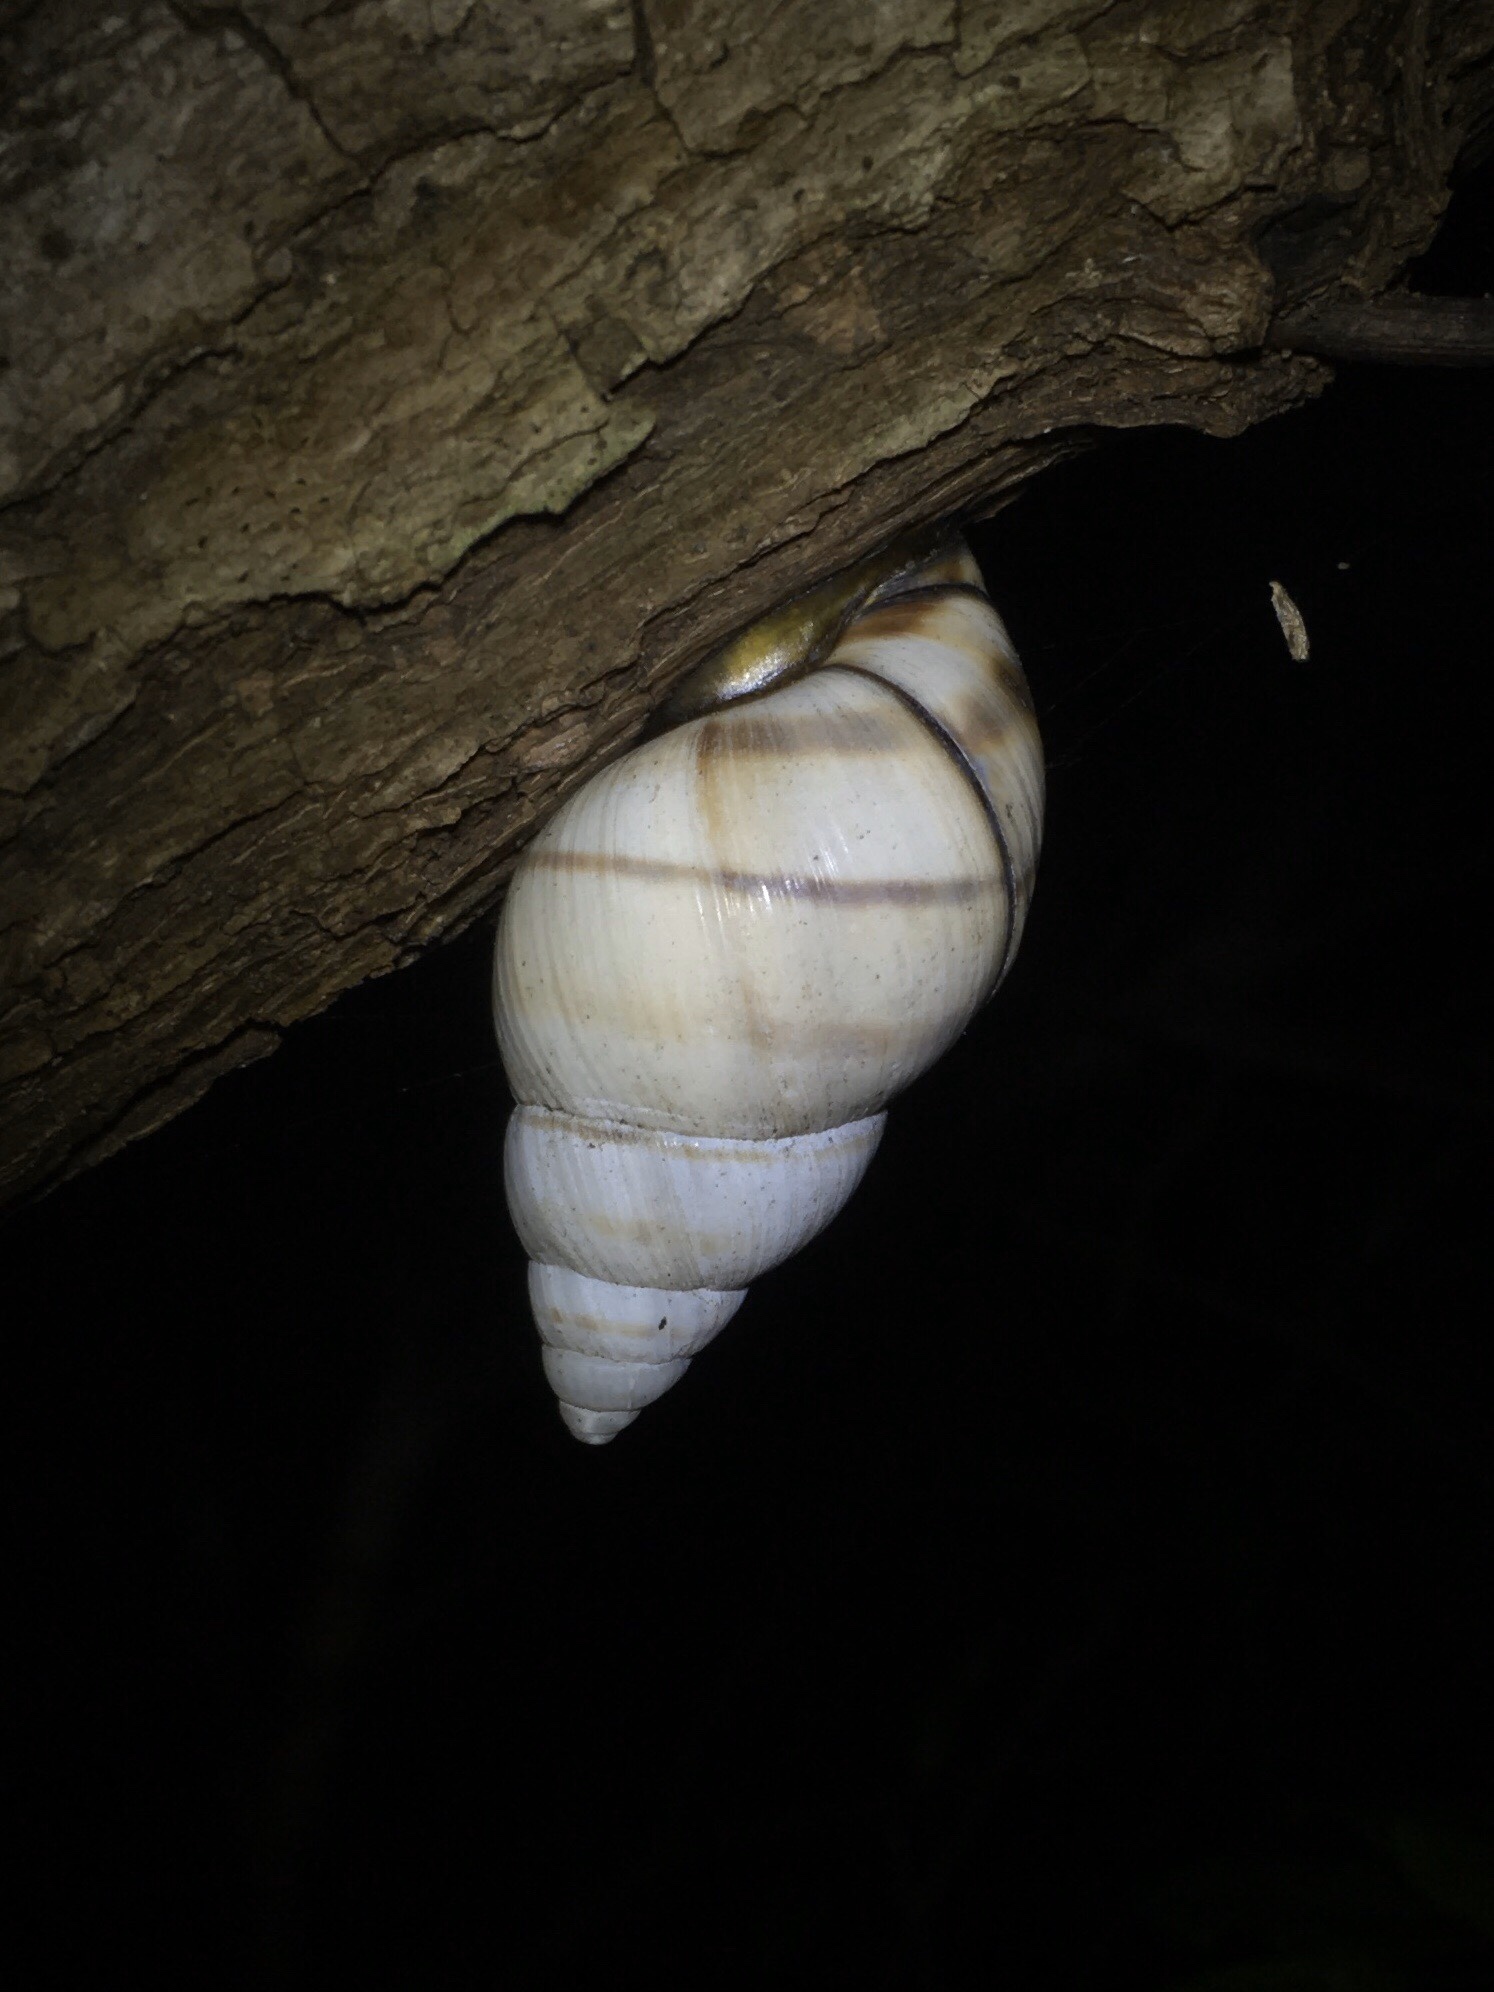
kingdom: Animalia
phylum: Mollusca
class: Gastropoda
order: Stylommatophora
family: Orthalicidae
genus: Orthalicus
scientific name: Orthalicus floridensis
